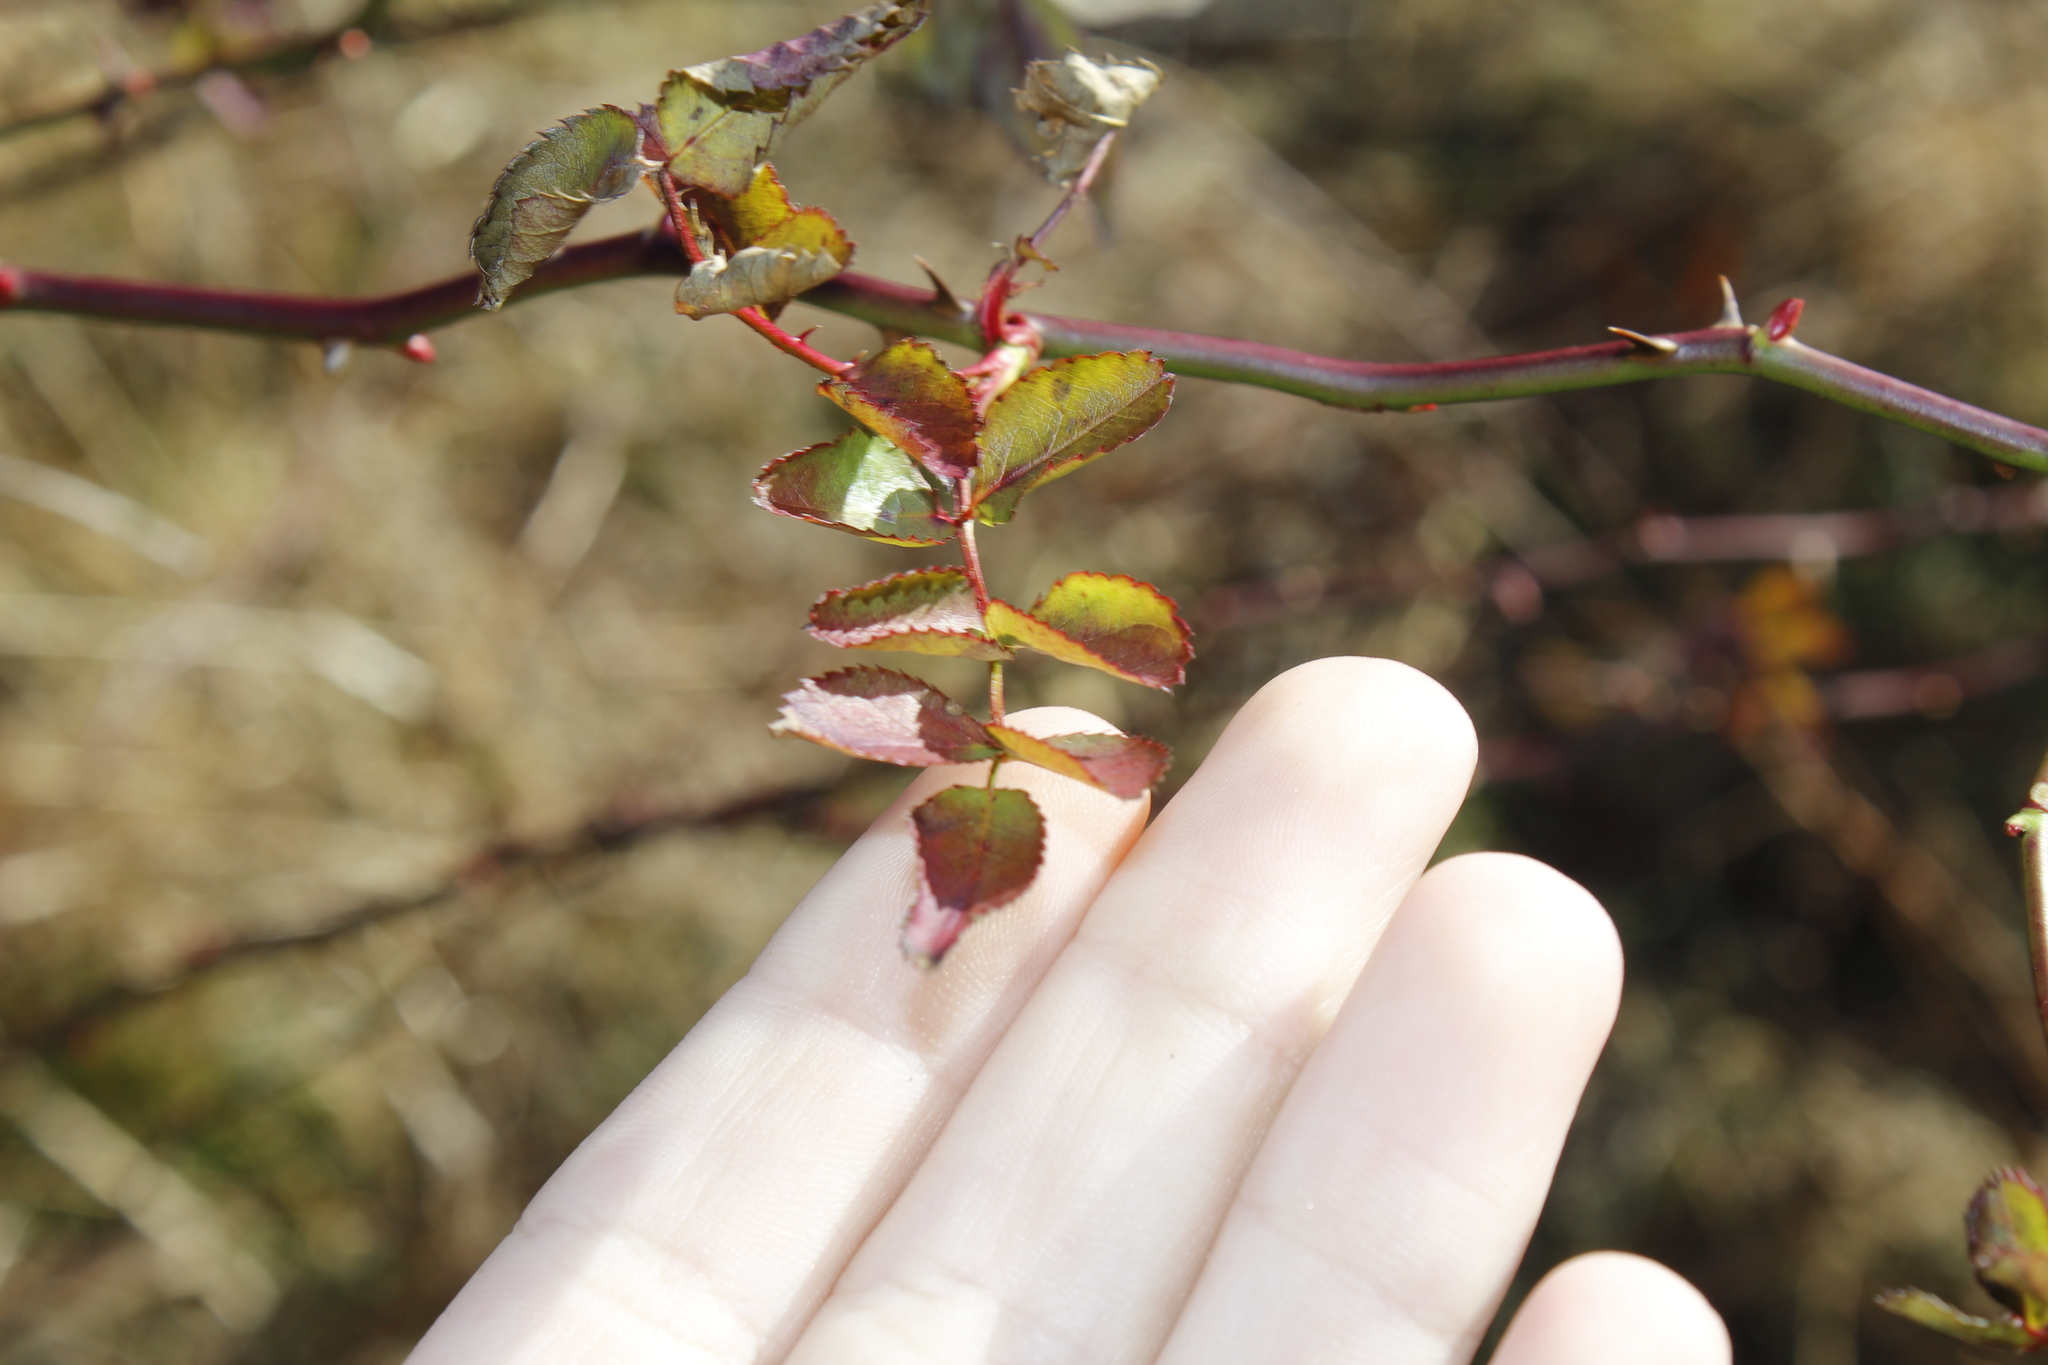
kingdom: Plantae
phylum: Tracheophyta
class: Magnoliopsida
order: Rosales
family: Rosaceae
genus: Rosa
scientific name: Rosa multiflora
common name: Multiflora rose
